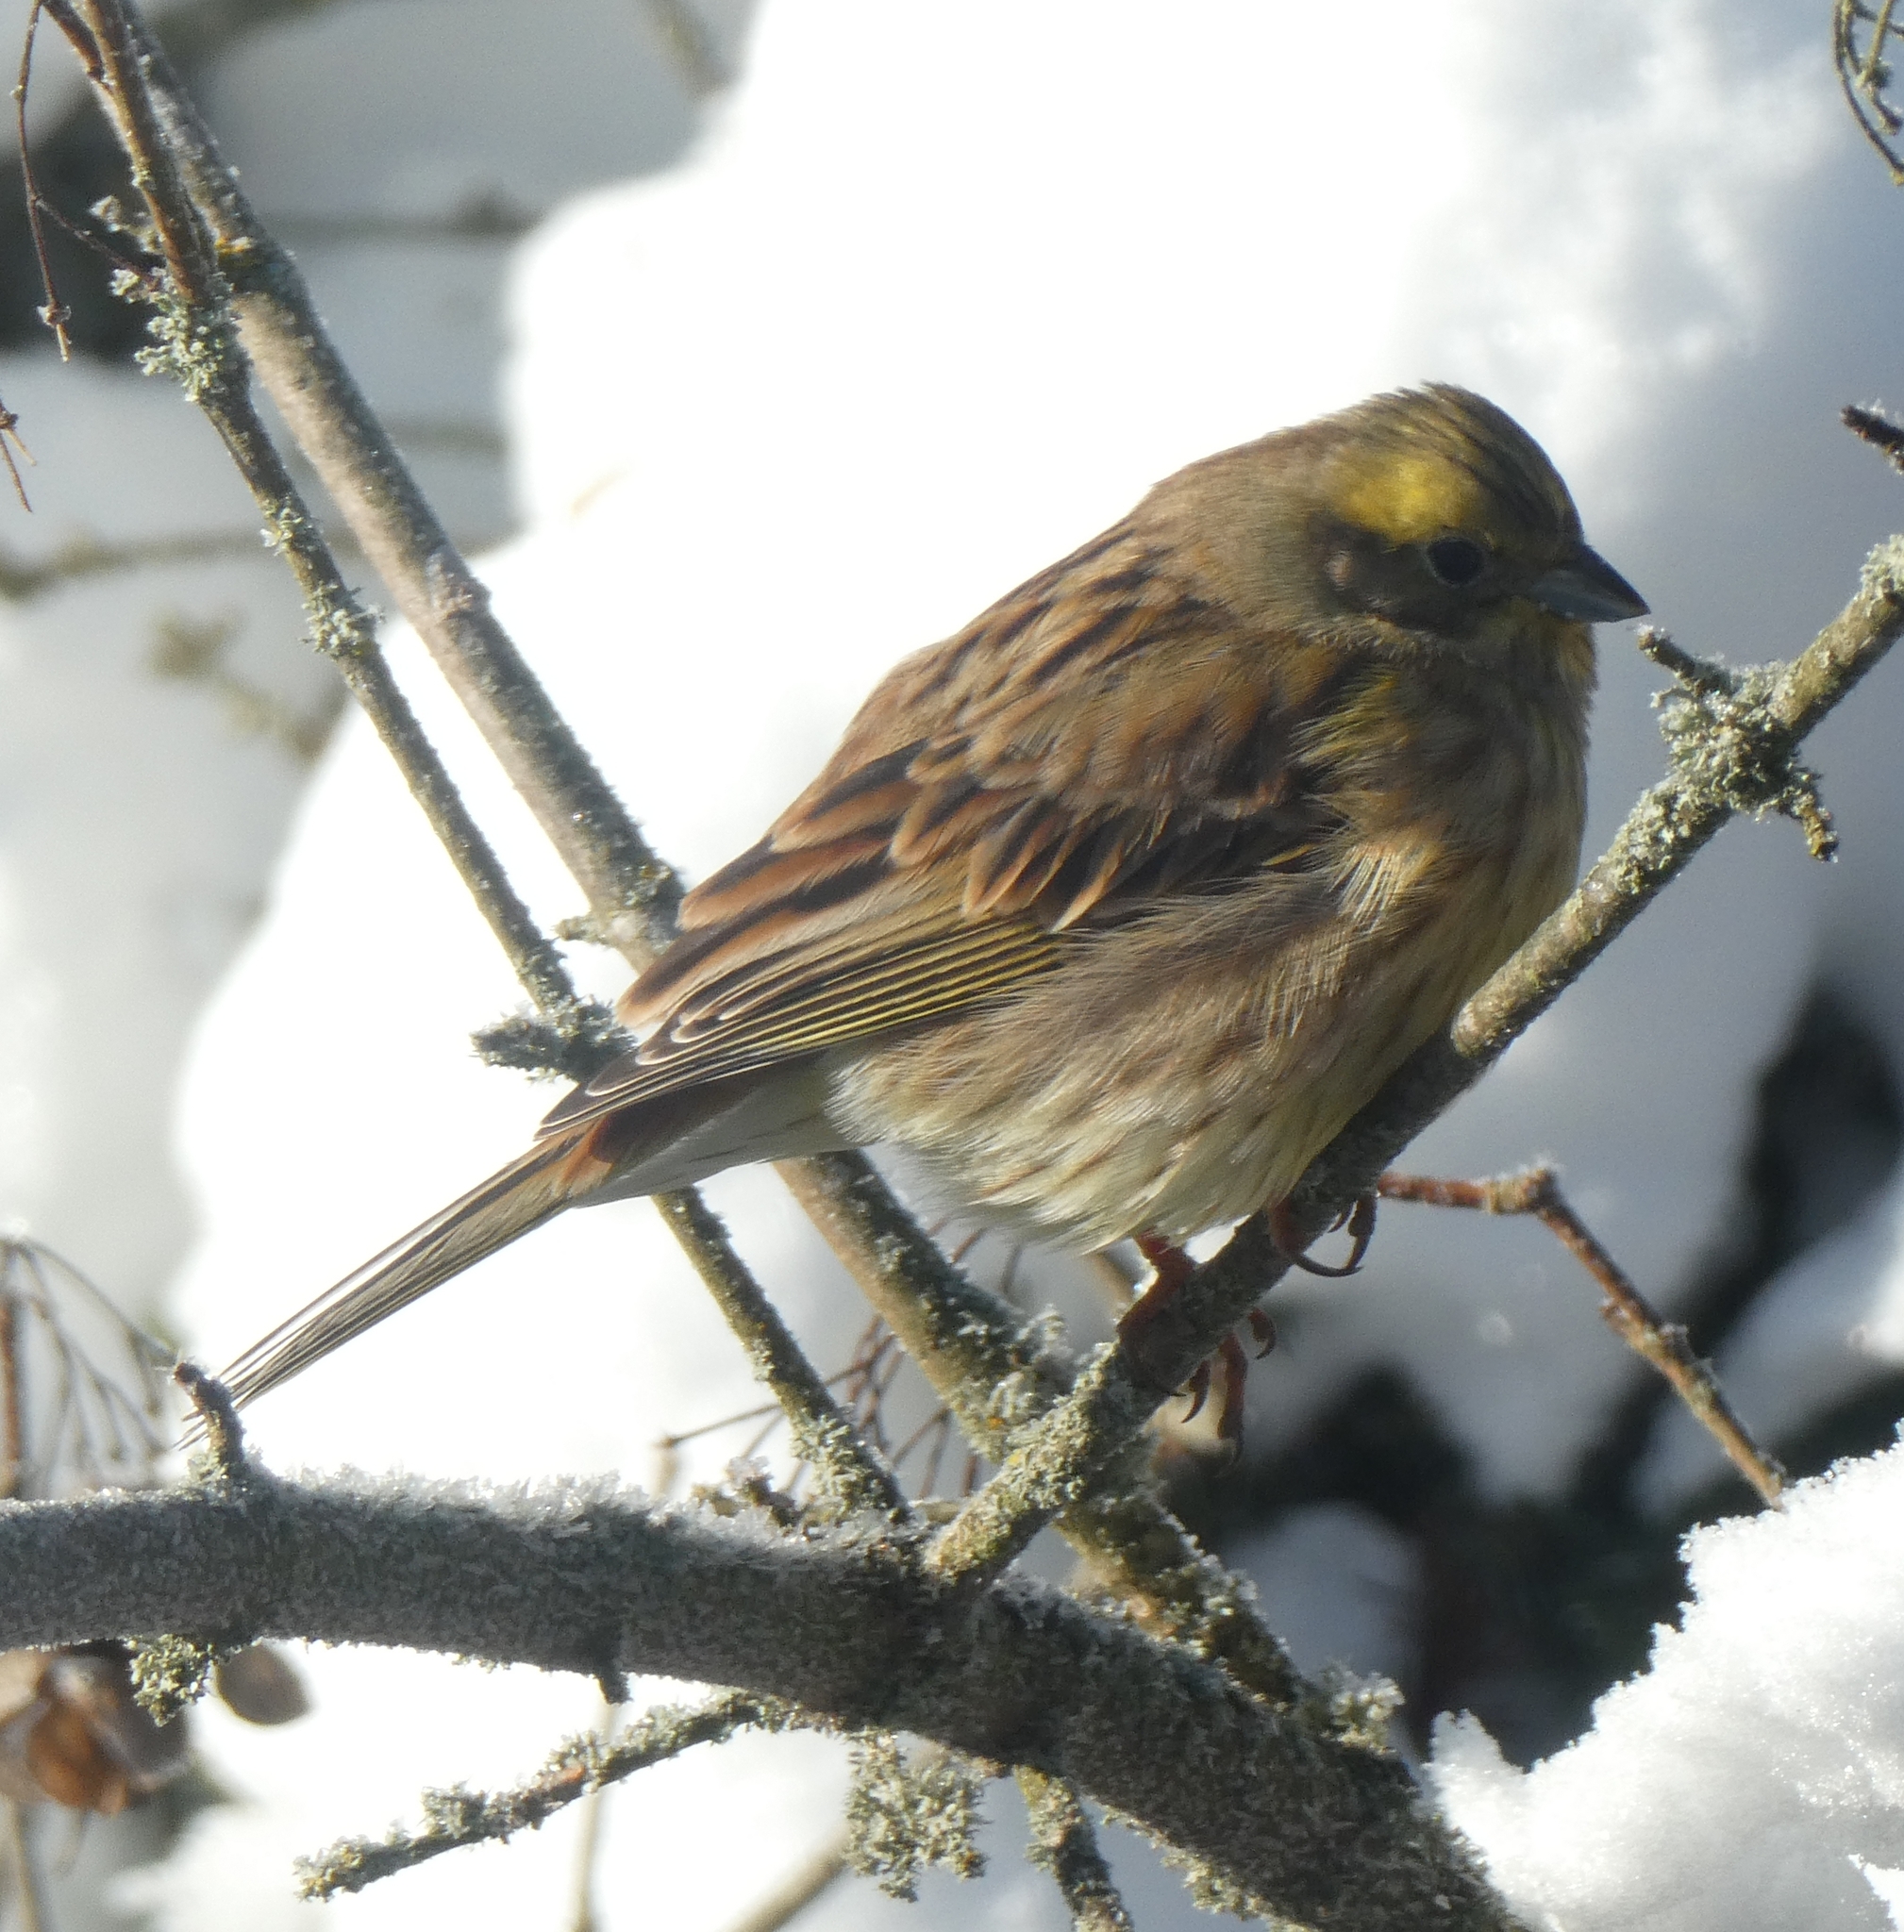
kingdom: Animalia
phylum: Chordata
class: Aves
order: Passeriformes
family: Emberizidae
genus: Emberiza
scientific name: Emberiza citrinella
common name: Yellowhammer
